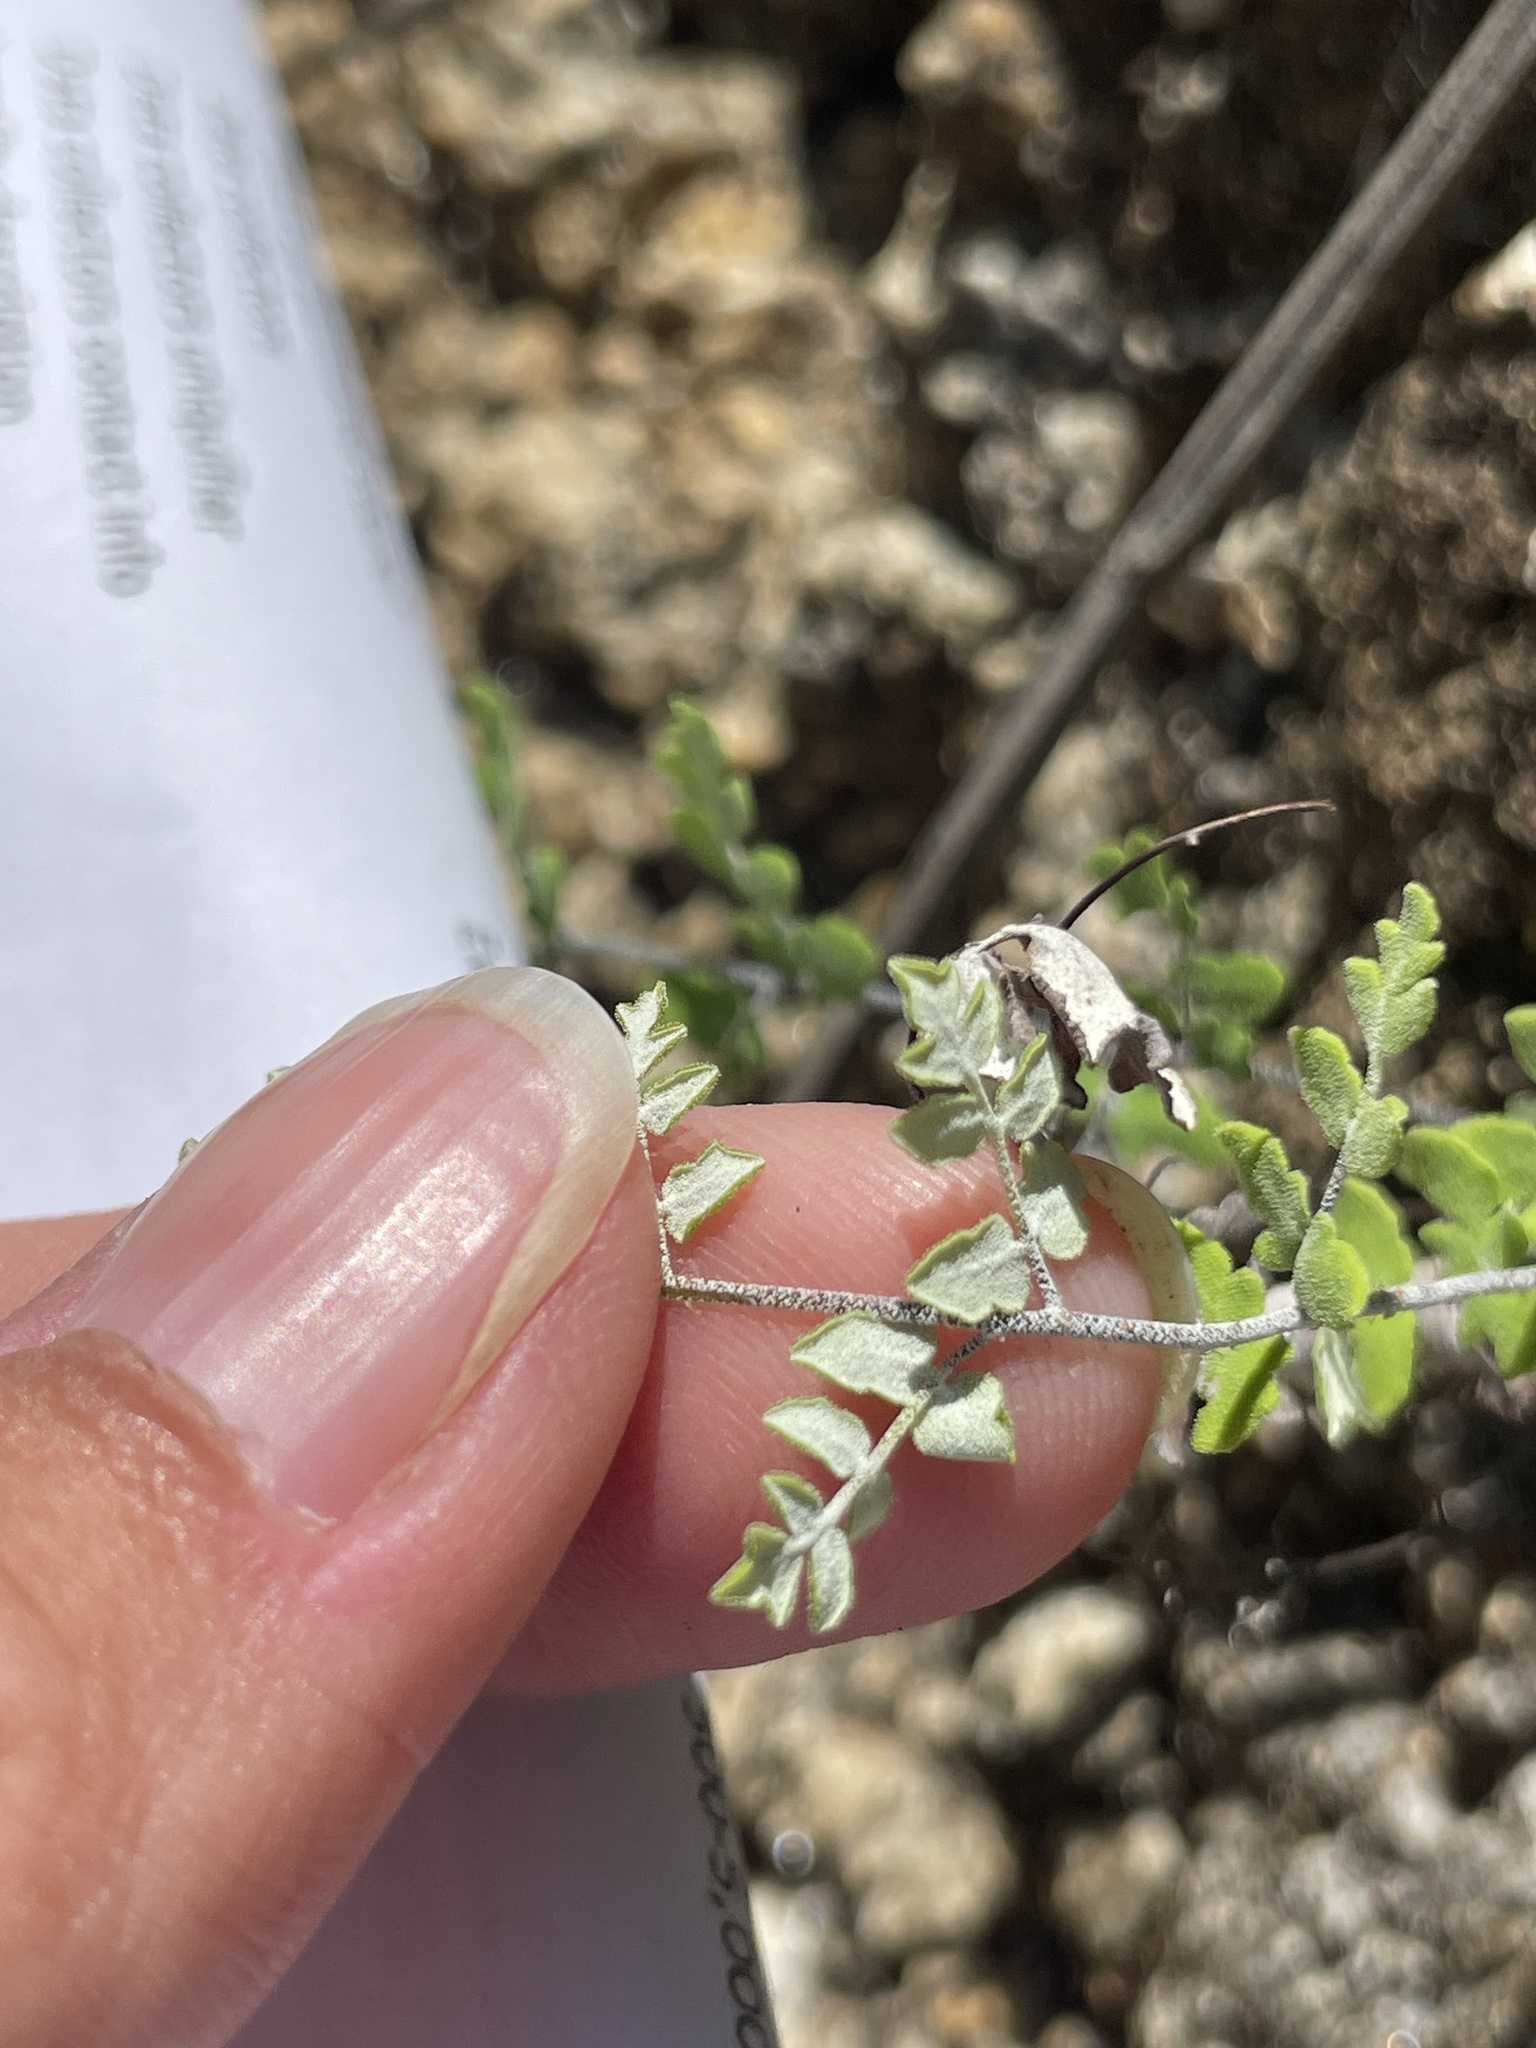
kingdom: Plantae
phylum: Tracheophyta
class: Polypodiopsida
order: Polypodiales
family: Pteridaceae
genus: Argyrochosma
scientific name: Argyrochosma peninsularis
